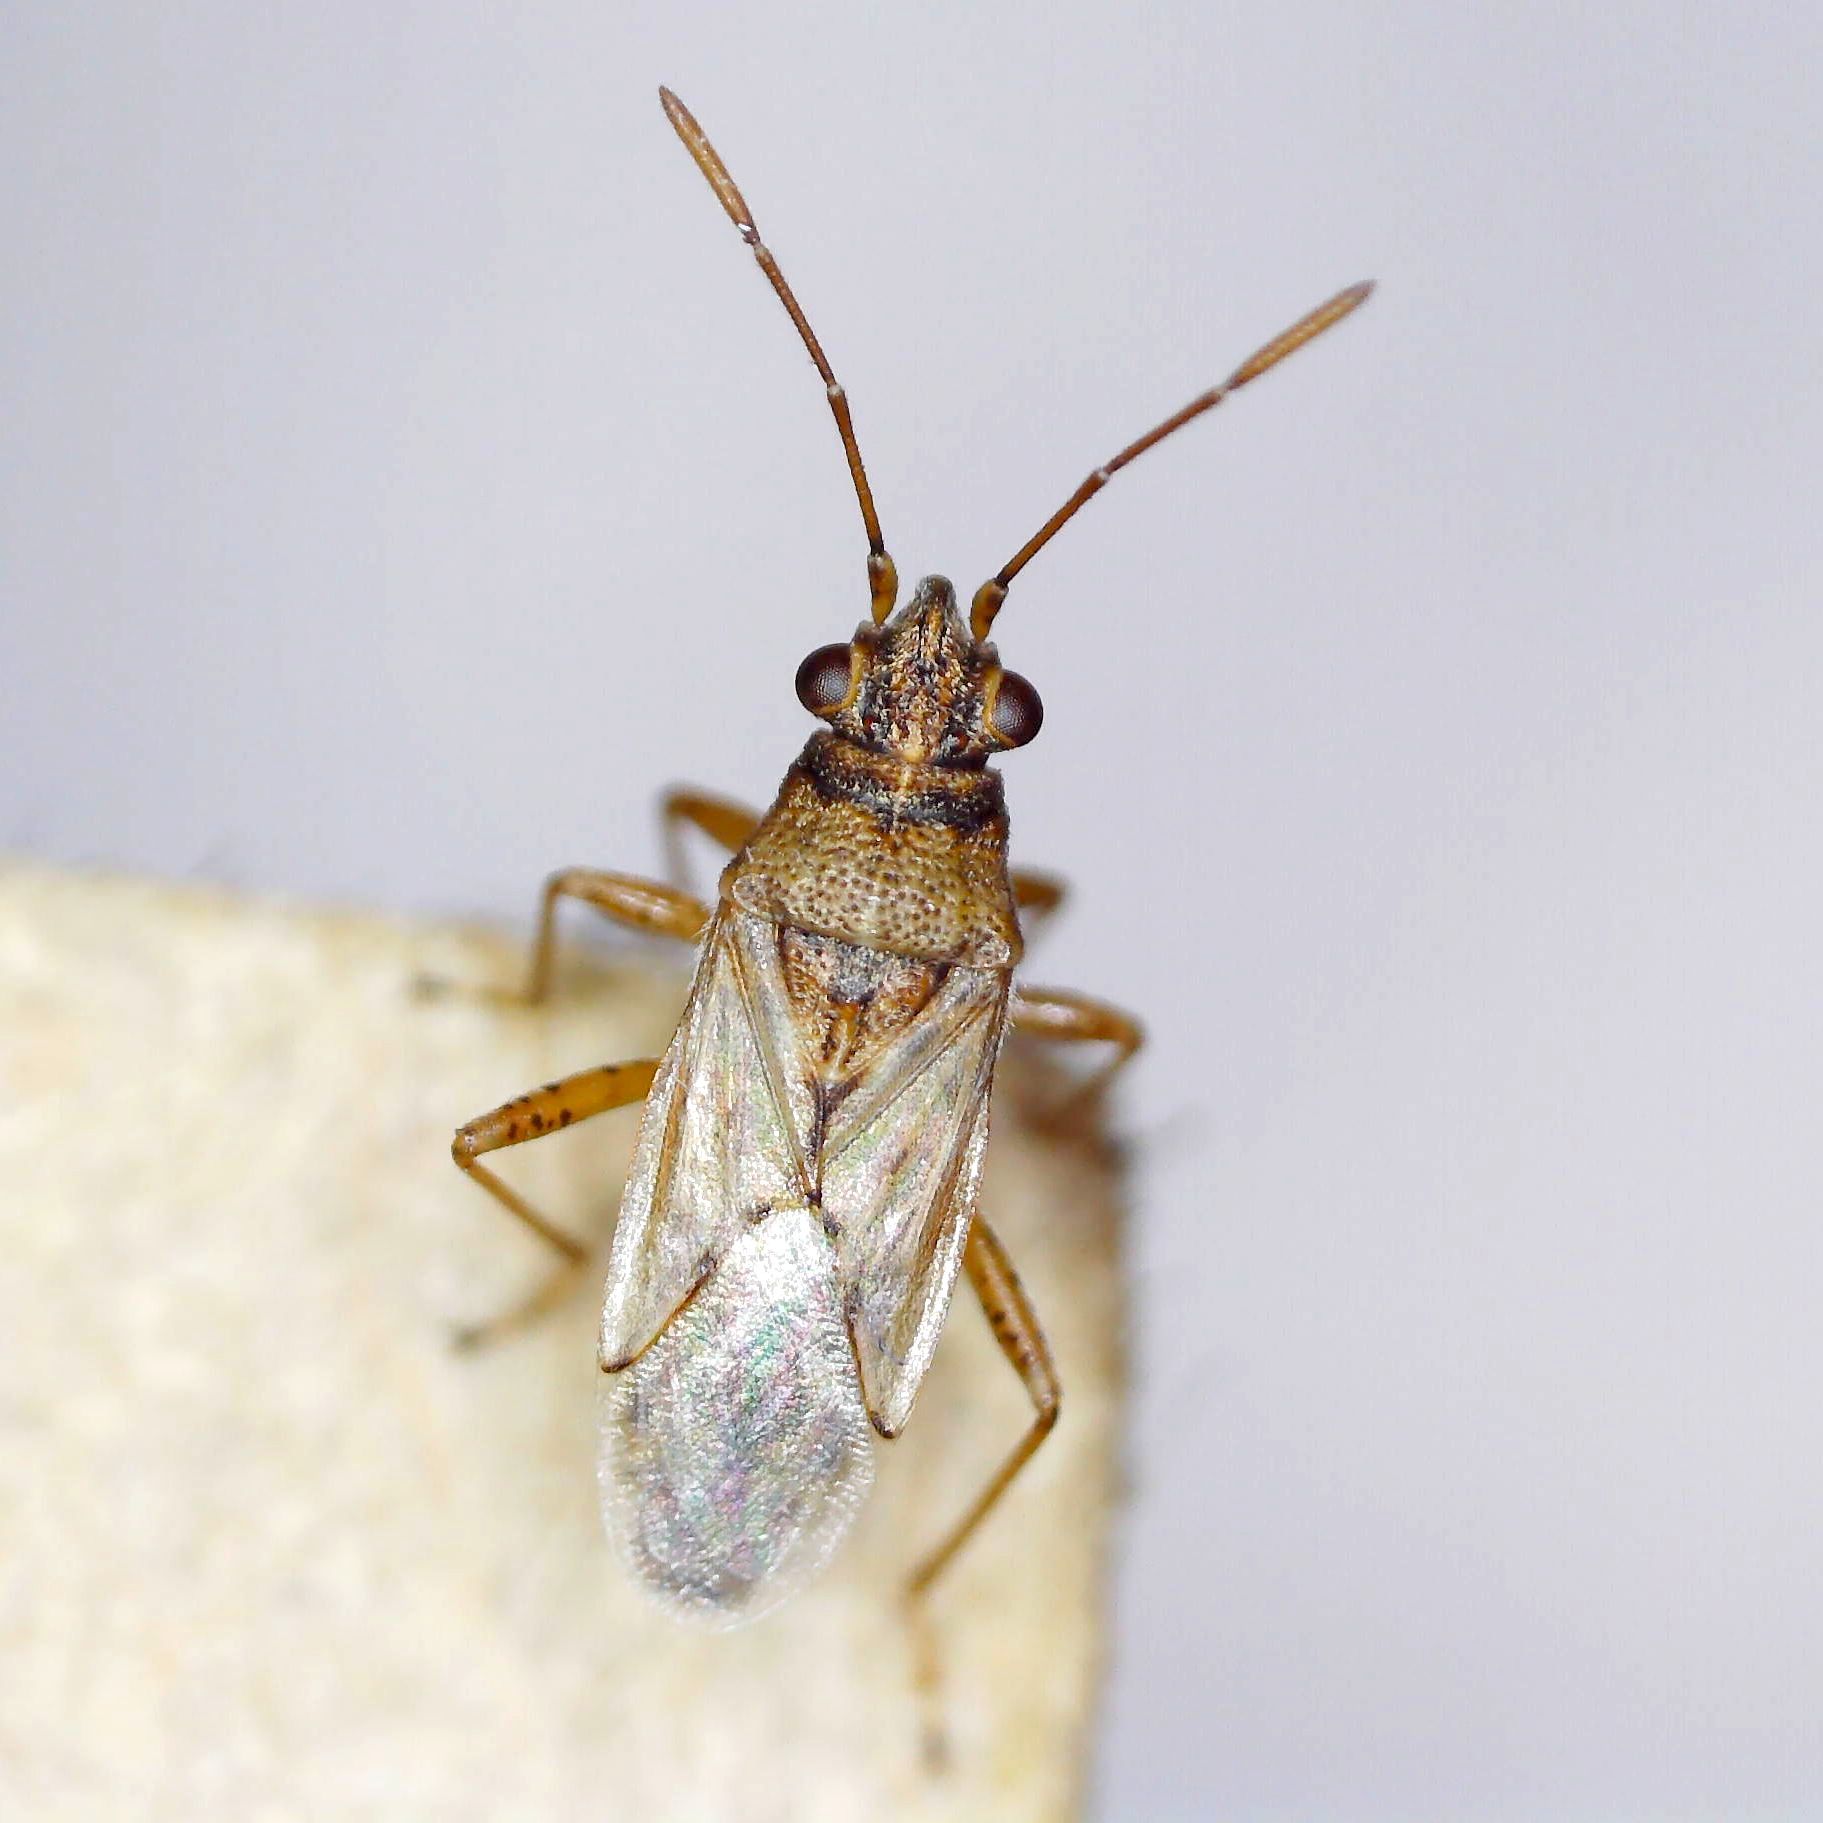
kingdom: Animalia
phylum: Arthropoda
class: Insecta
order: Hemiptera
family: Lygaeidae
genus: Nysius
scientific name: Nysius graminicola
